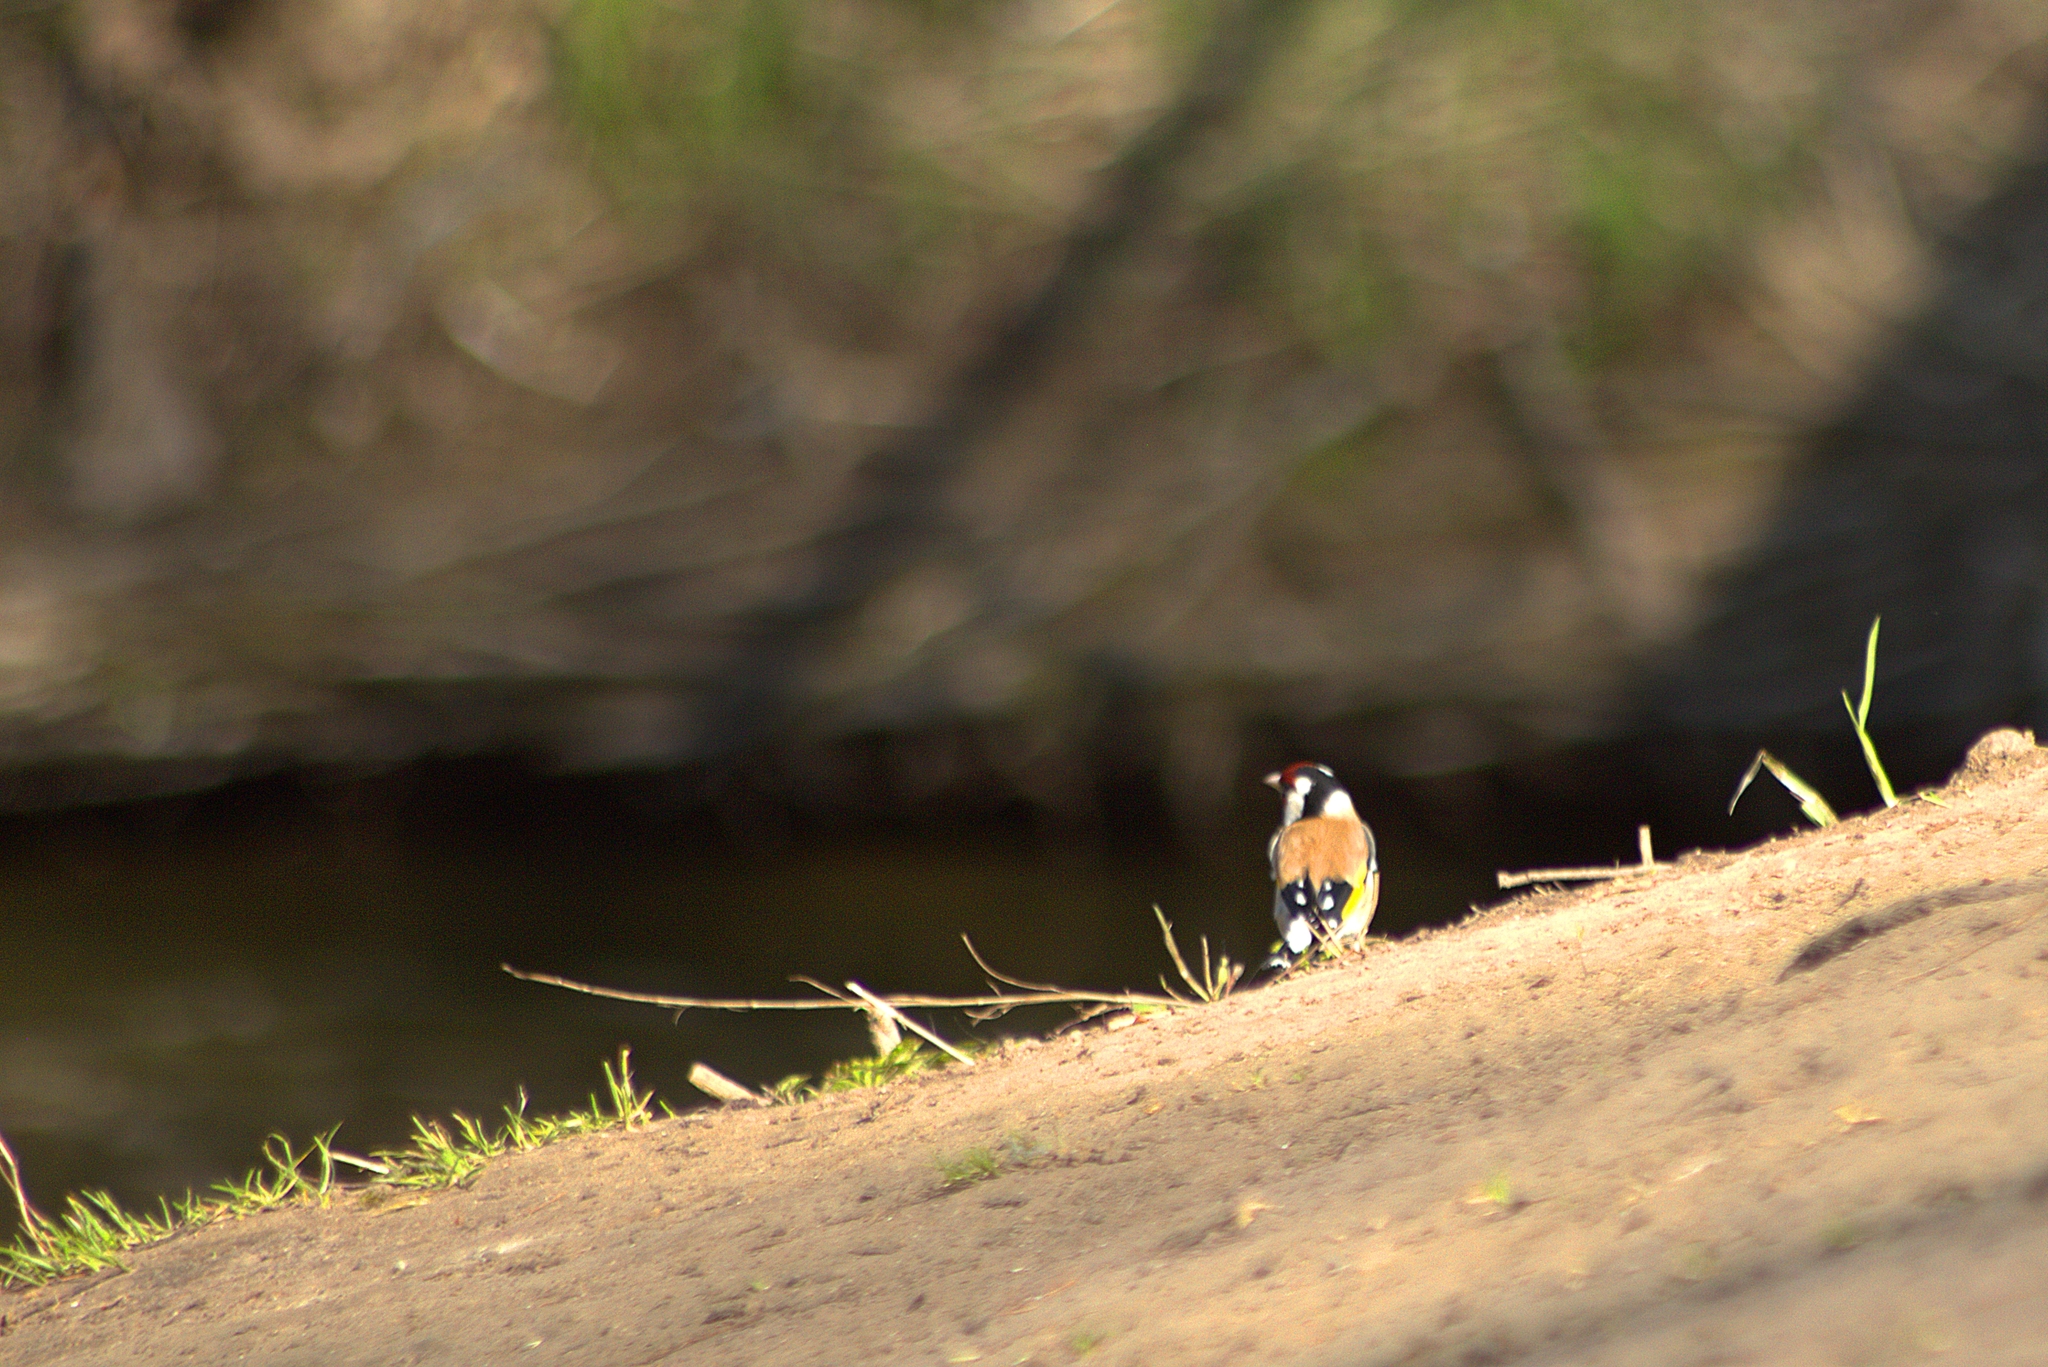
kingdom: Animalia
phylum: Chordata
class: Aves
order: Passeriformes
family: Fringillidae
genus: Carduelis
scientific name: Carduelis carduelis
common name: European goldfinch
